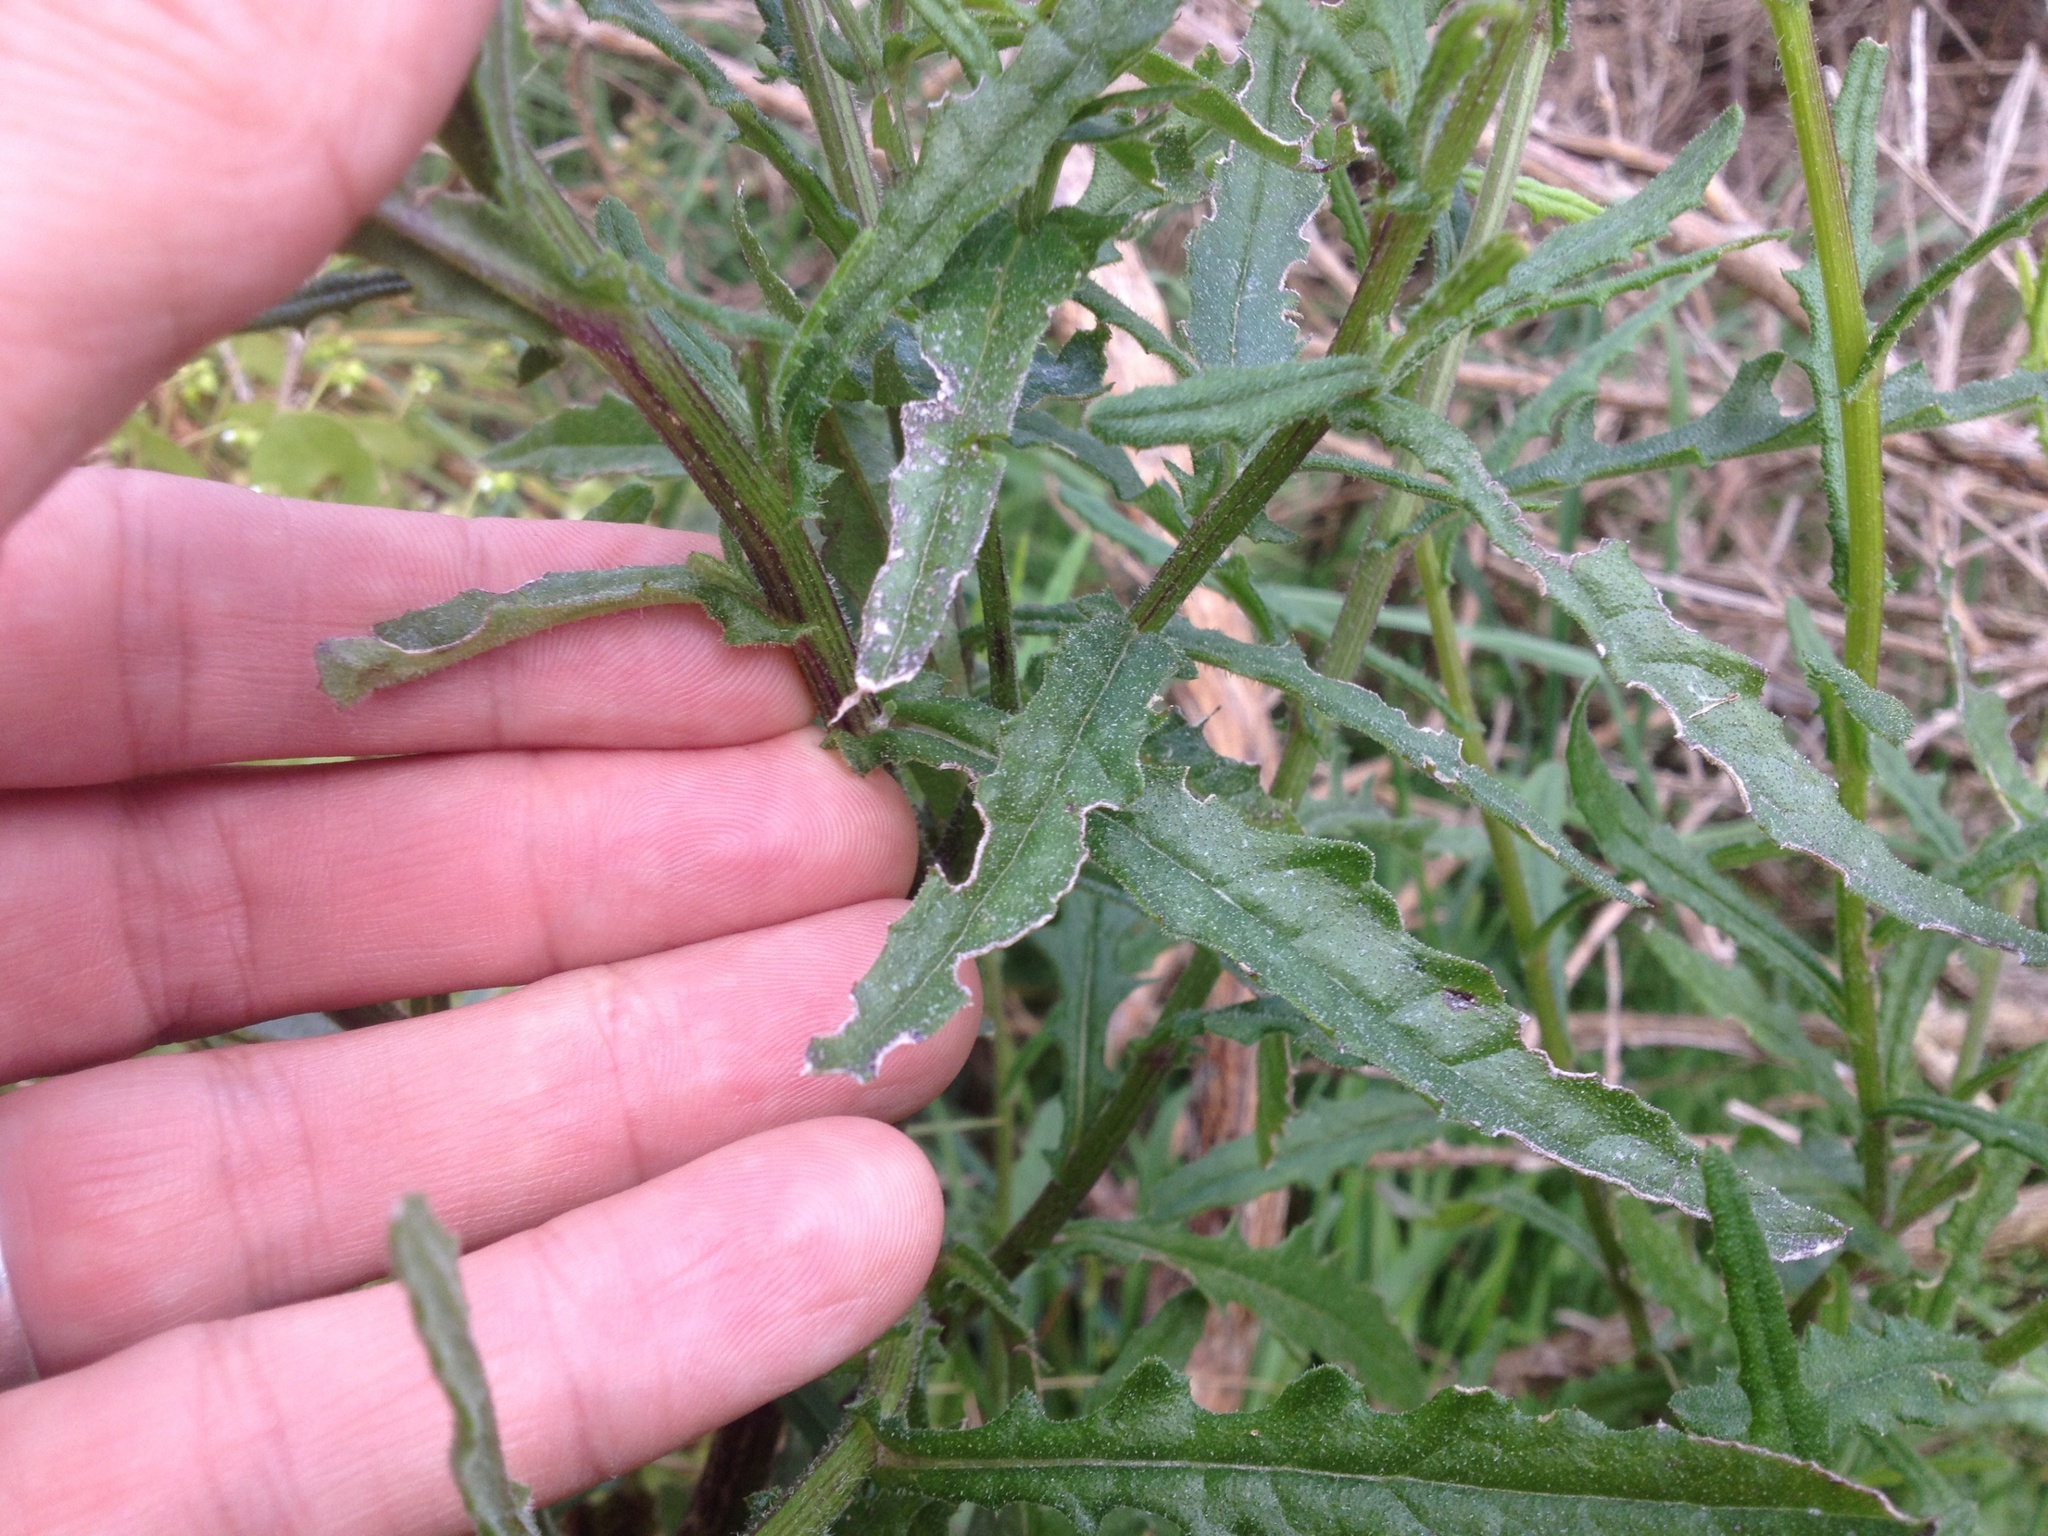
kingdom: Plantae
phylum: Tracheophyta
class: Magnoliopsida
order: Asterales
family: Asteraceae
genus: Senecio
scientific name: Senecio hispidulus
